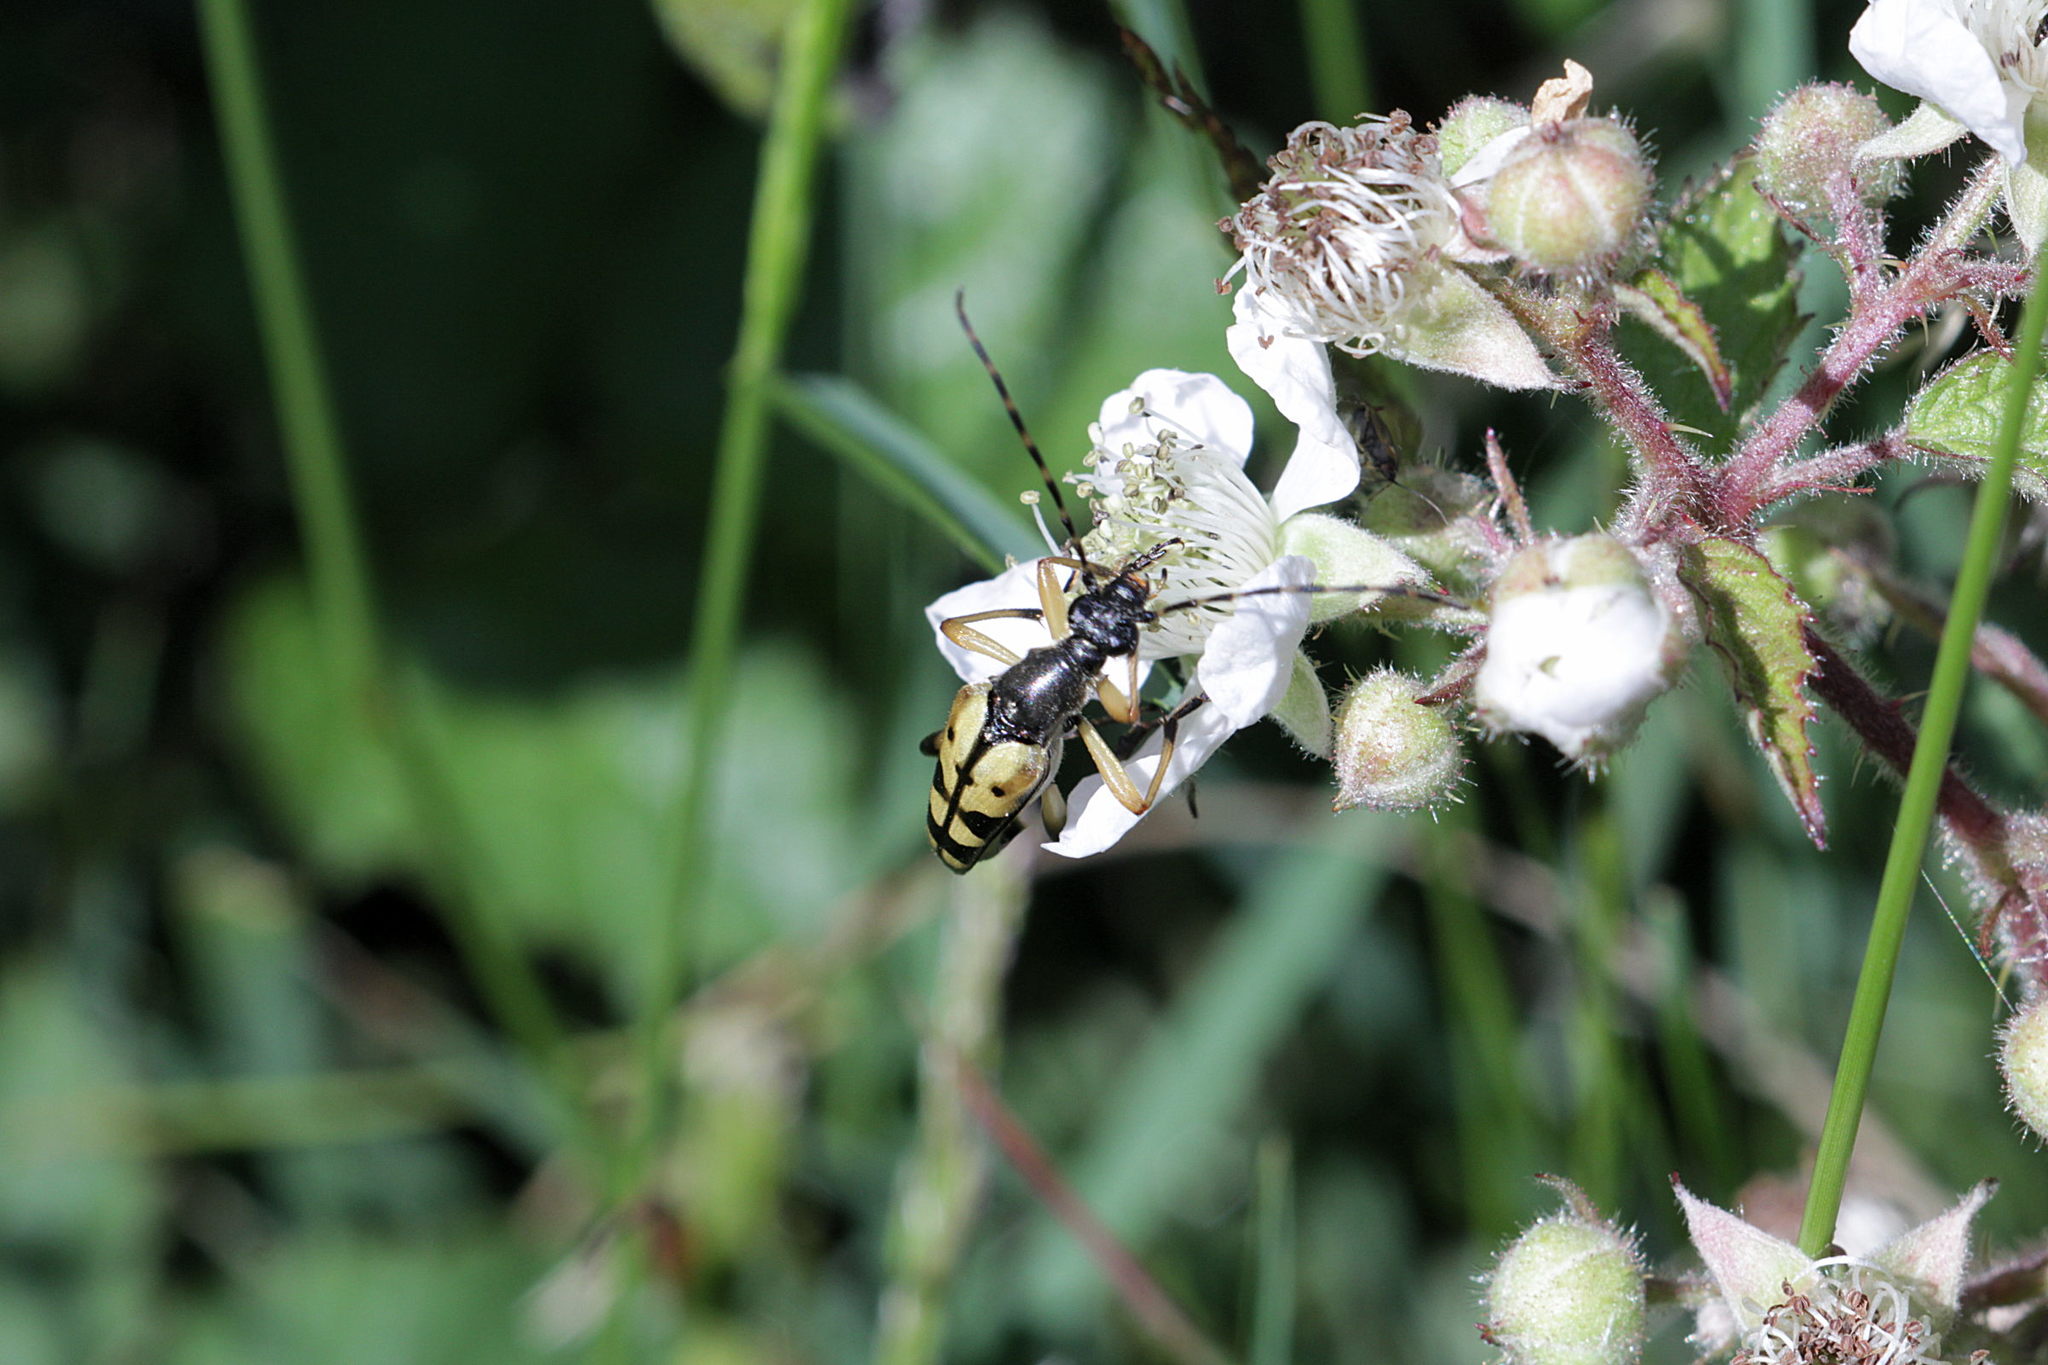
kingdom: Animalia
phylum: Arthropoda
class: Insecta
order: Coleoptera
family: Cerambycidae
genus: Rutpela
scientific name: Rutpela maculata
